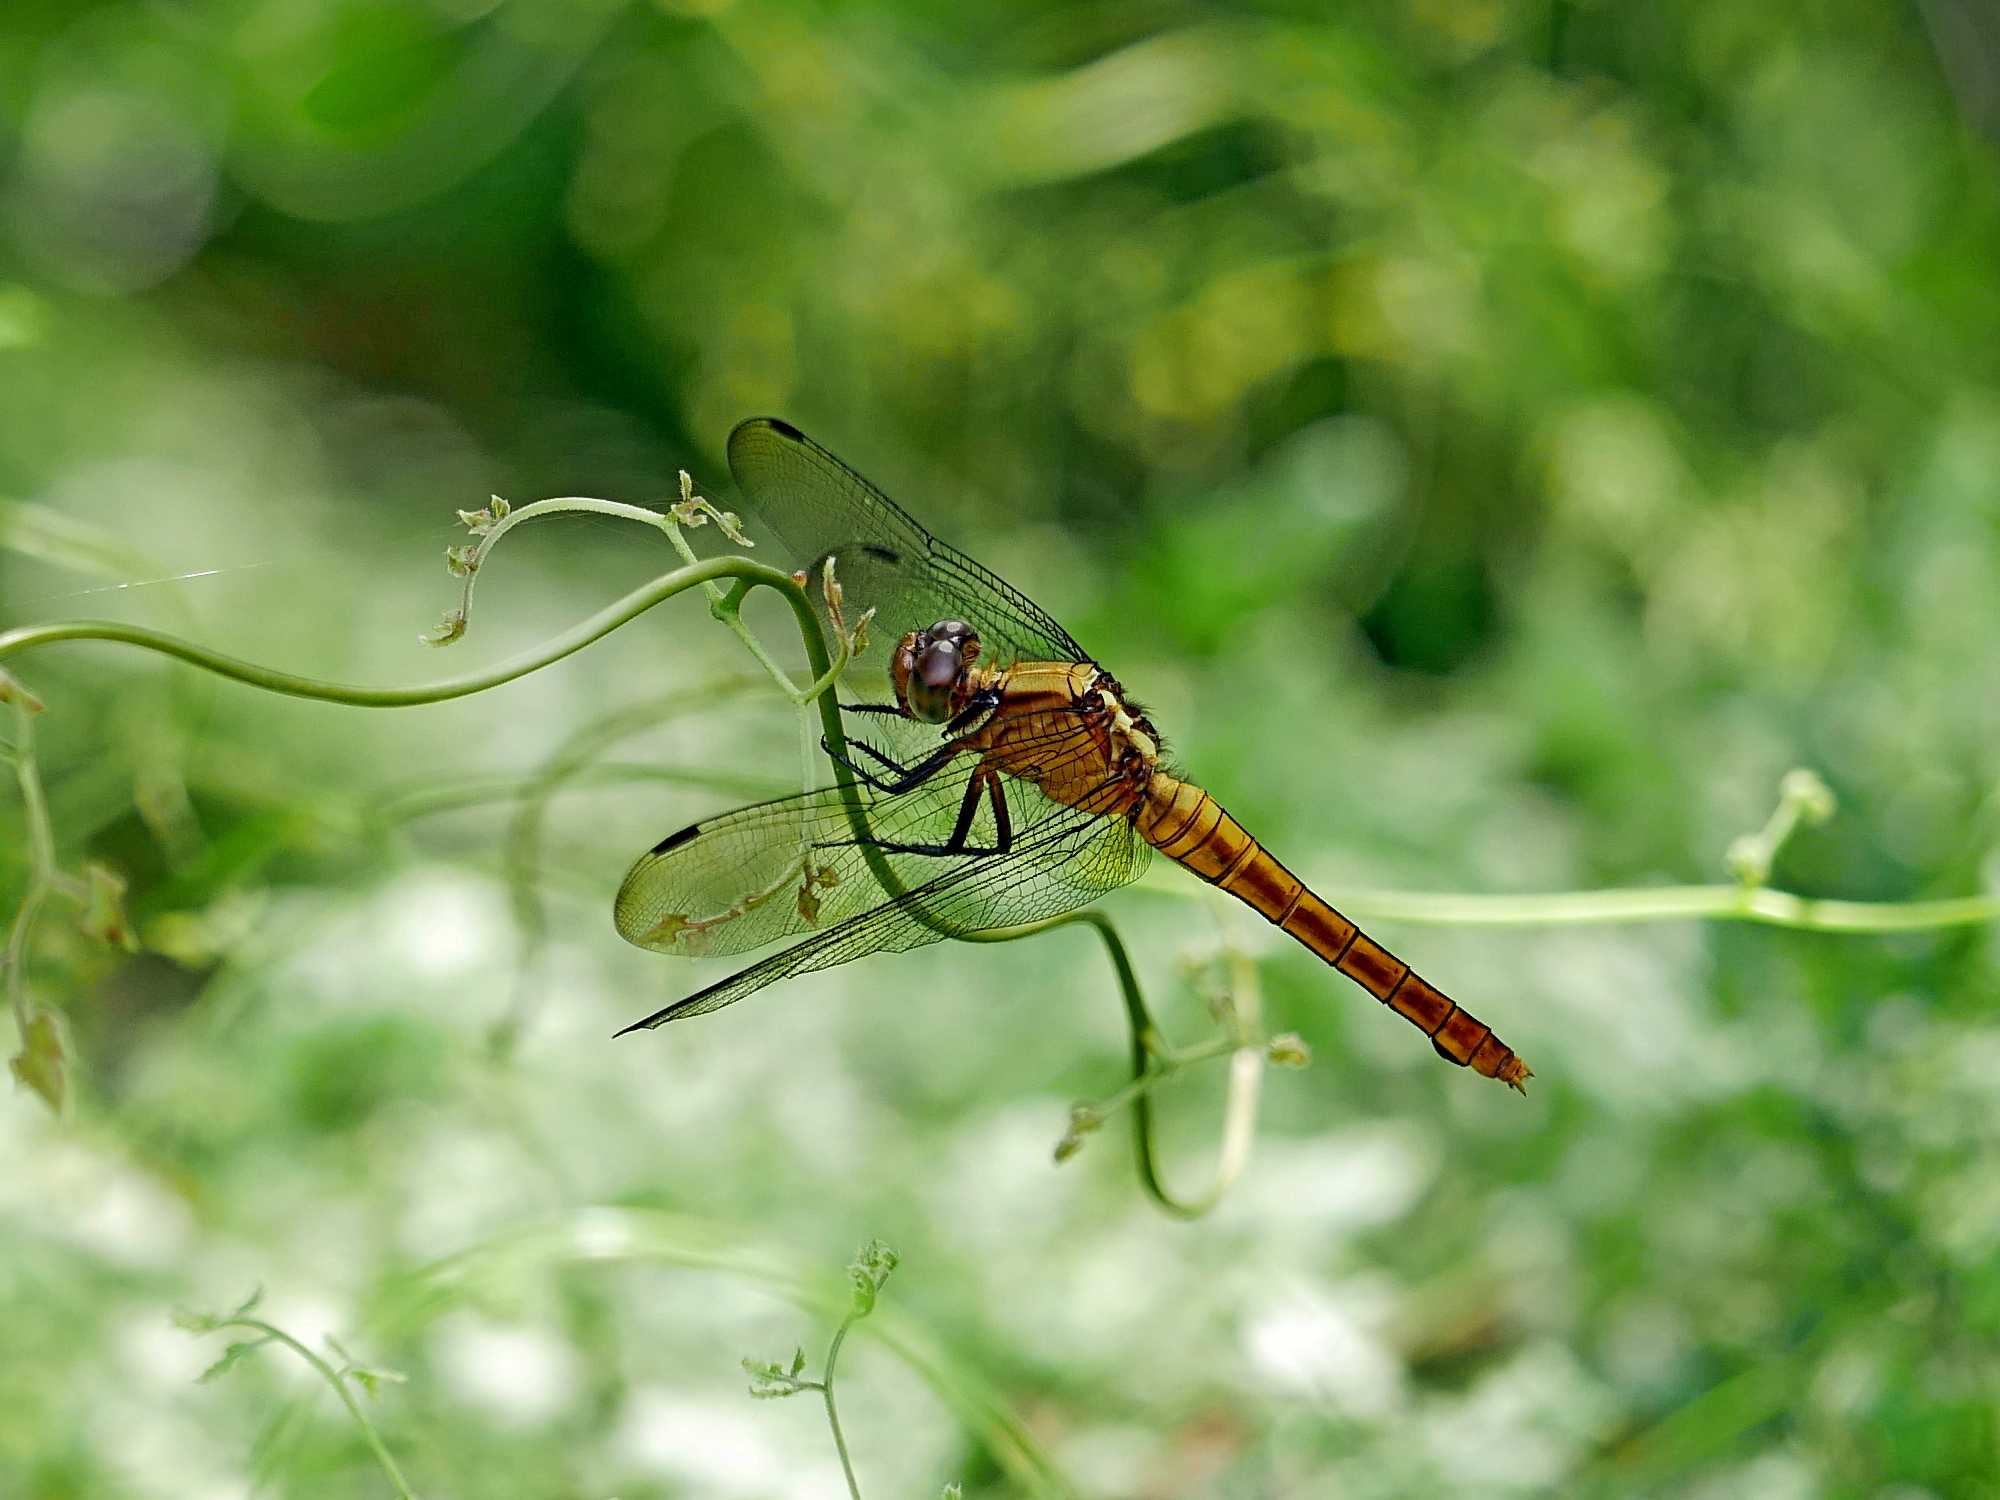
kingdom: Animalia
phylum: Arthropoda
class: Insecta
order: Odonata
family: Libellulidae
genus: Orthetrum
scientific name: Orthetrum pruinosum
